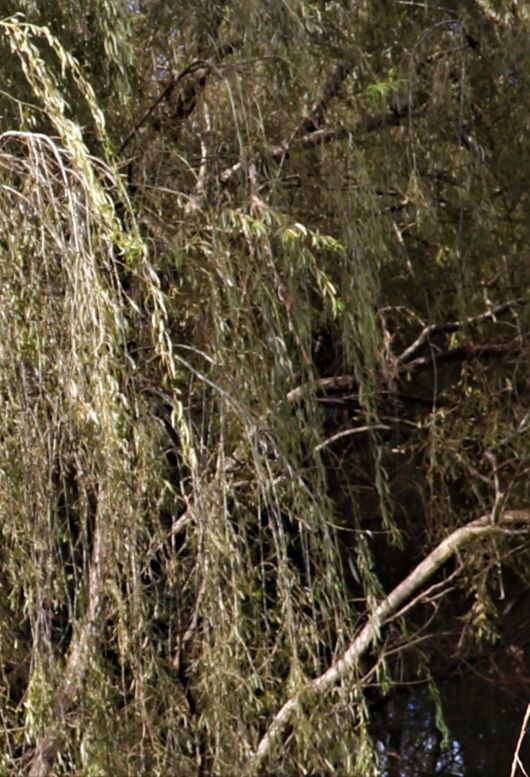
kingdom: Plantae
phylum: Tracheophyta
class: Magnoliopsida
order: Malpighiales
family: Salicaceae
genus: Salix
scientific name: Salix babylonica
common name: Weeping willow
